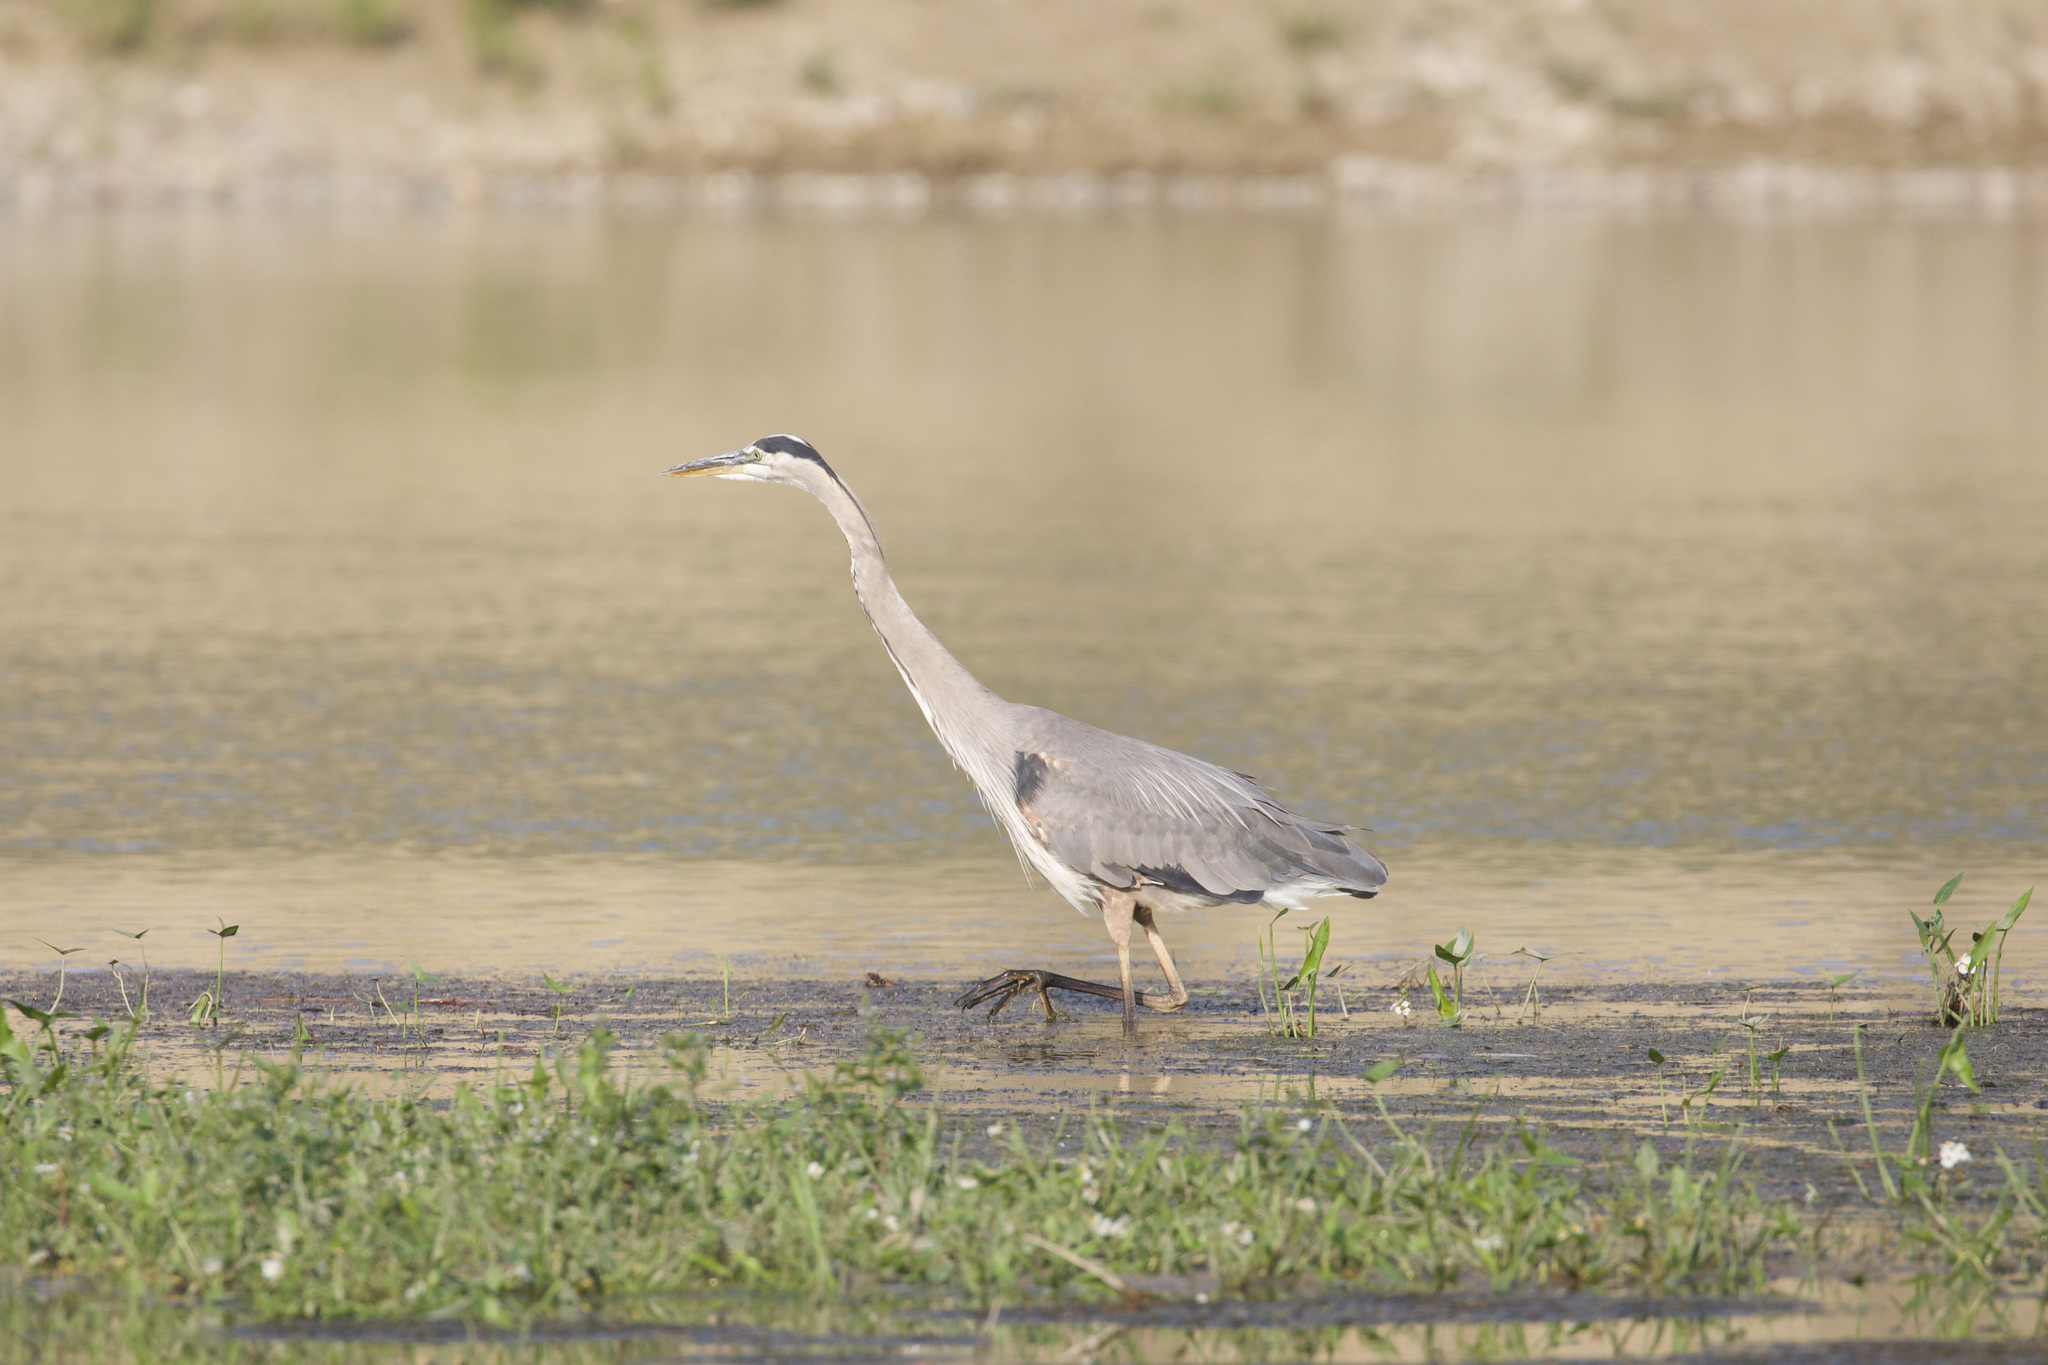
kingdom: Animalia
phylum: Chordata
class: Aves
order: Pelecaniformes
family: Ardeidae
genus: Ardea
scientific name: Ardea herodias
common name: Great blue heron
